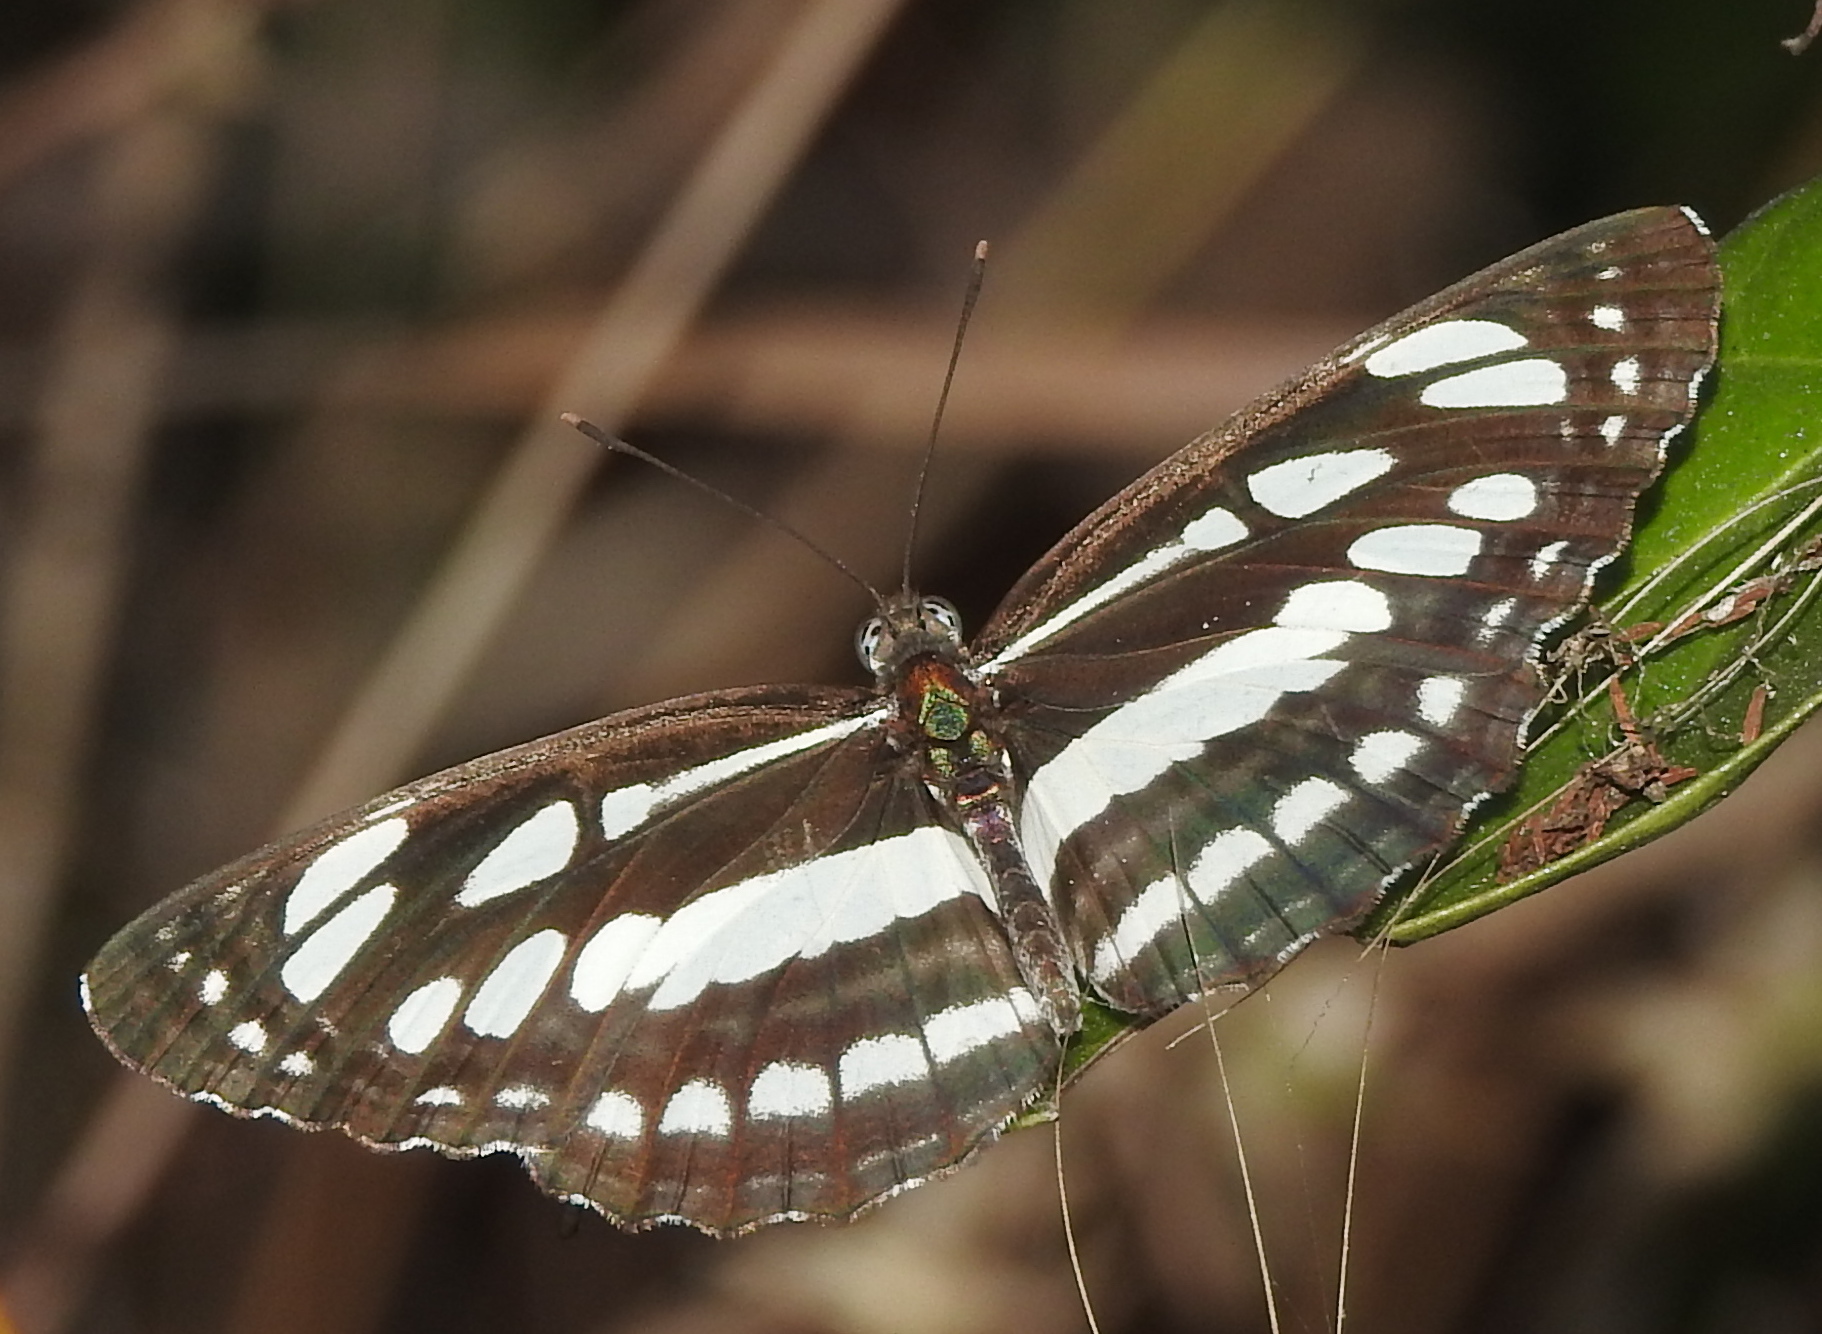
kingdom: Animalia
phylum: Arthropoda
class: Insecta
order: Lepidoptera
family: Nymphalidae
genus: Neptis
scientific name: Neptis hylas
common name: Common sailer
